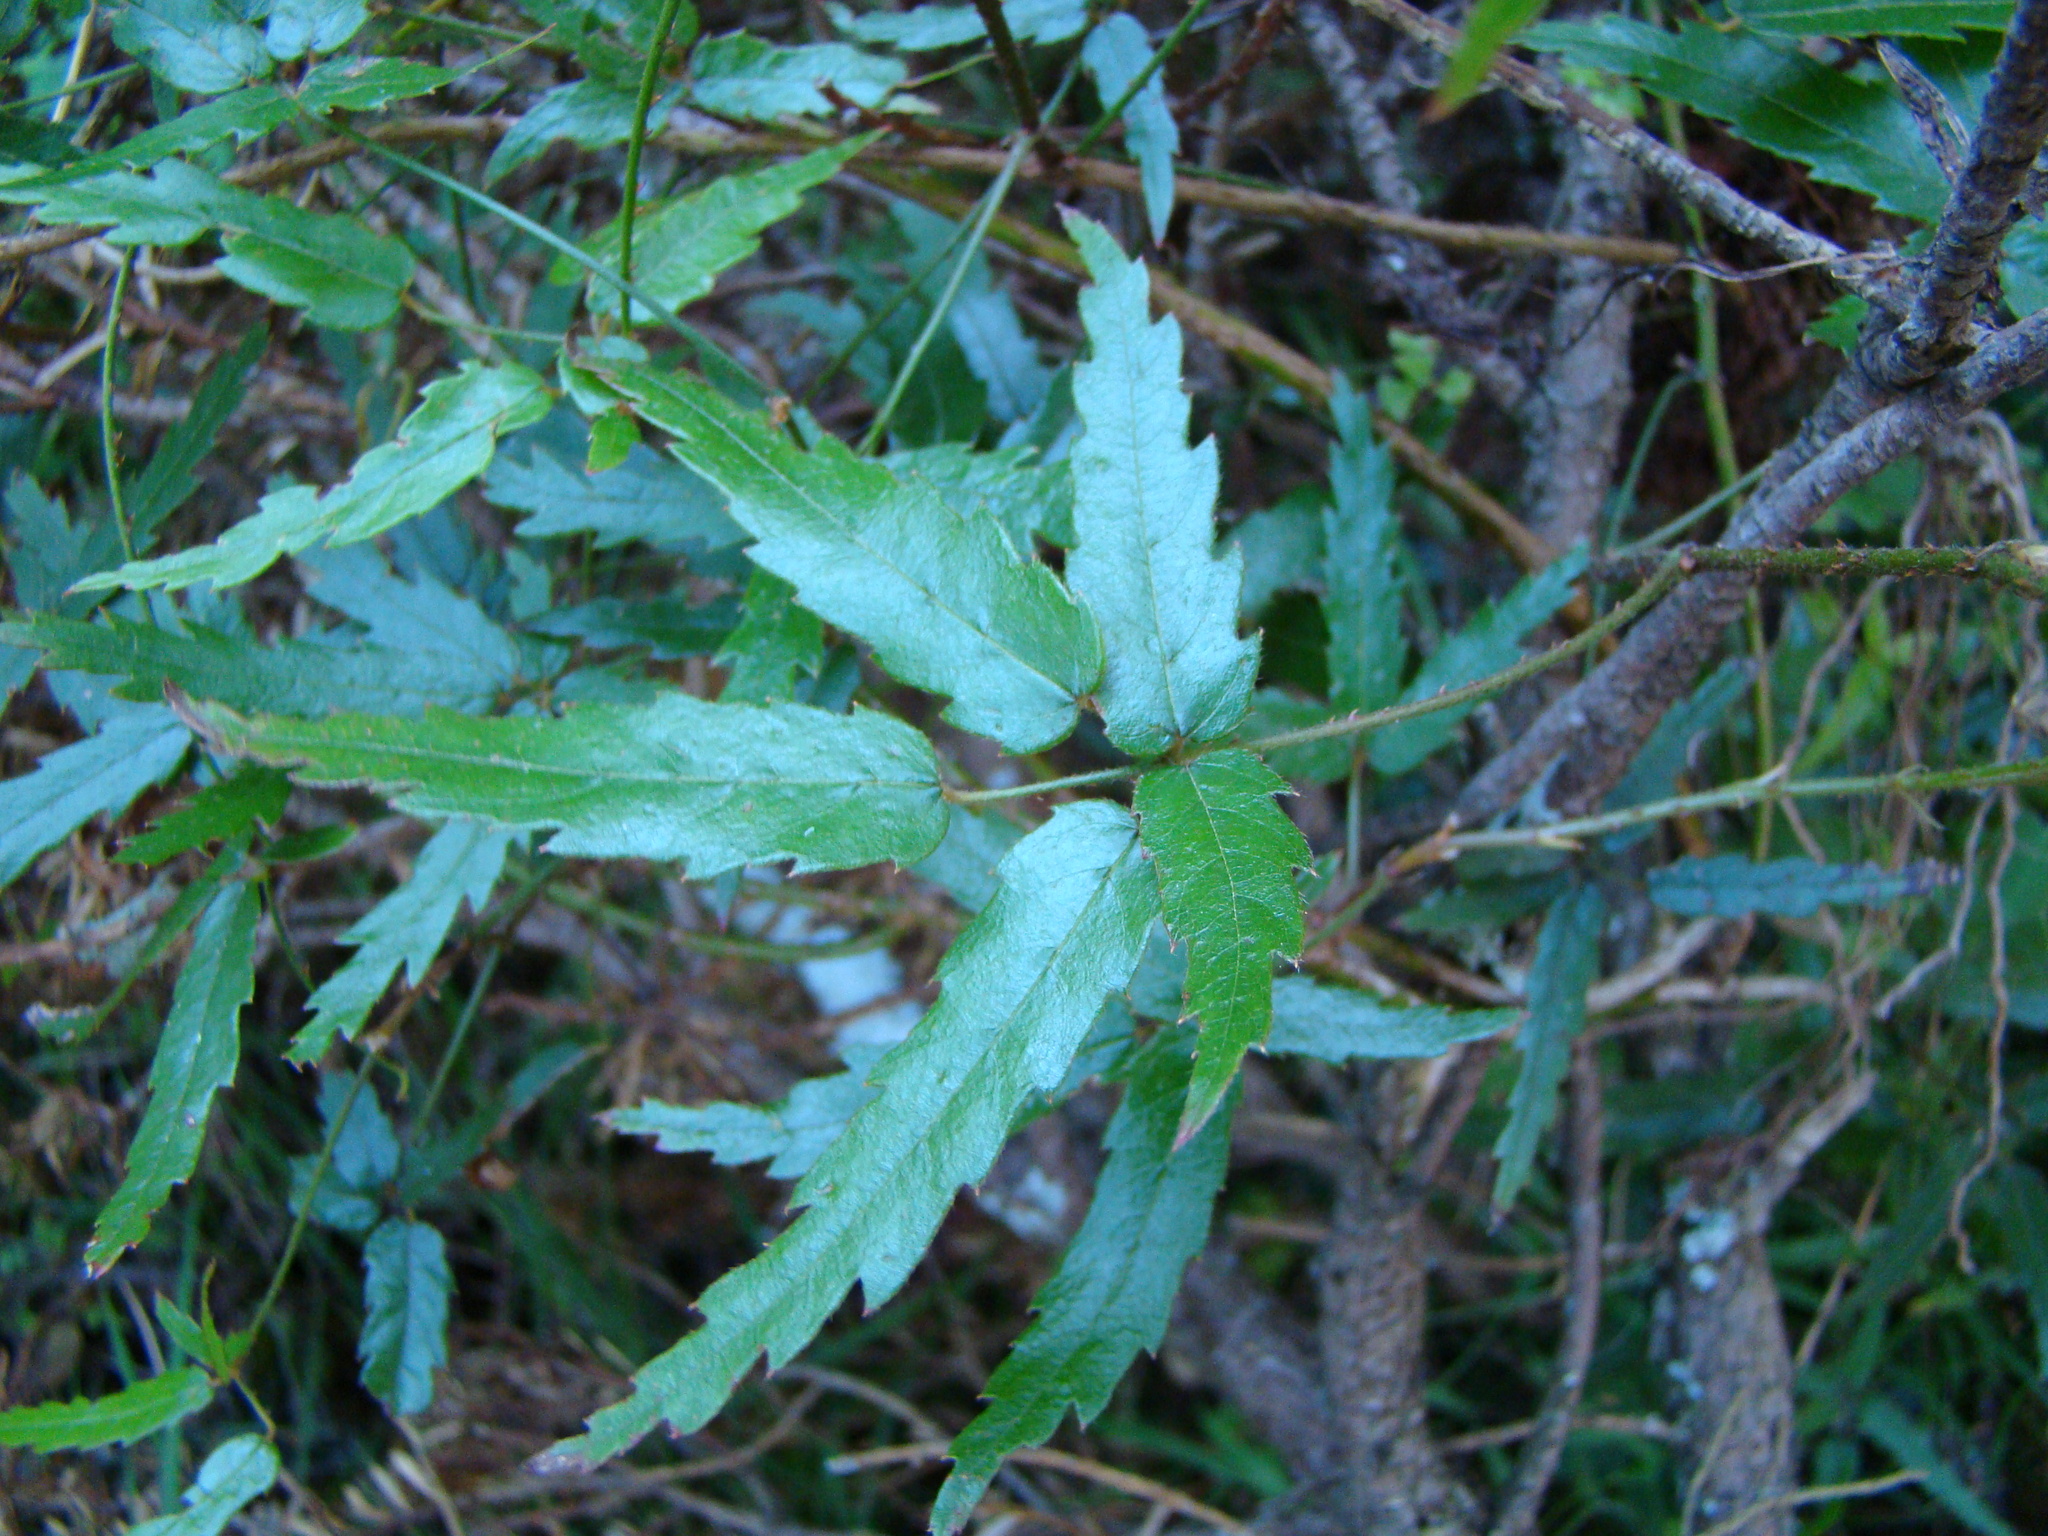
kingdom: Plantae
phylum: Tracheophyta
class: Magnoliopsida
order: Rosales
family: Rosaceae
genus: Rubus
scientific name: Rubus schmidelioides
